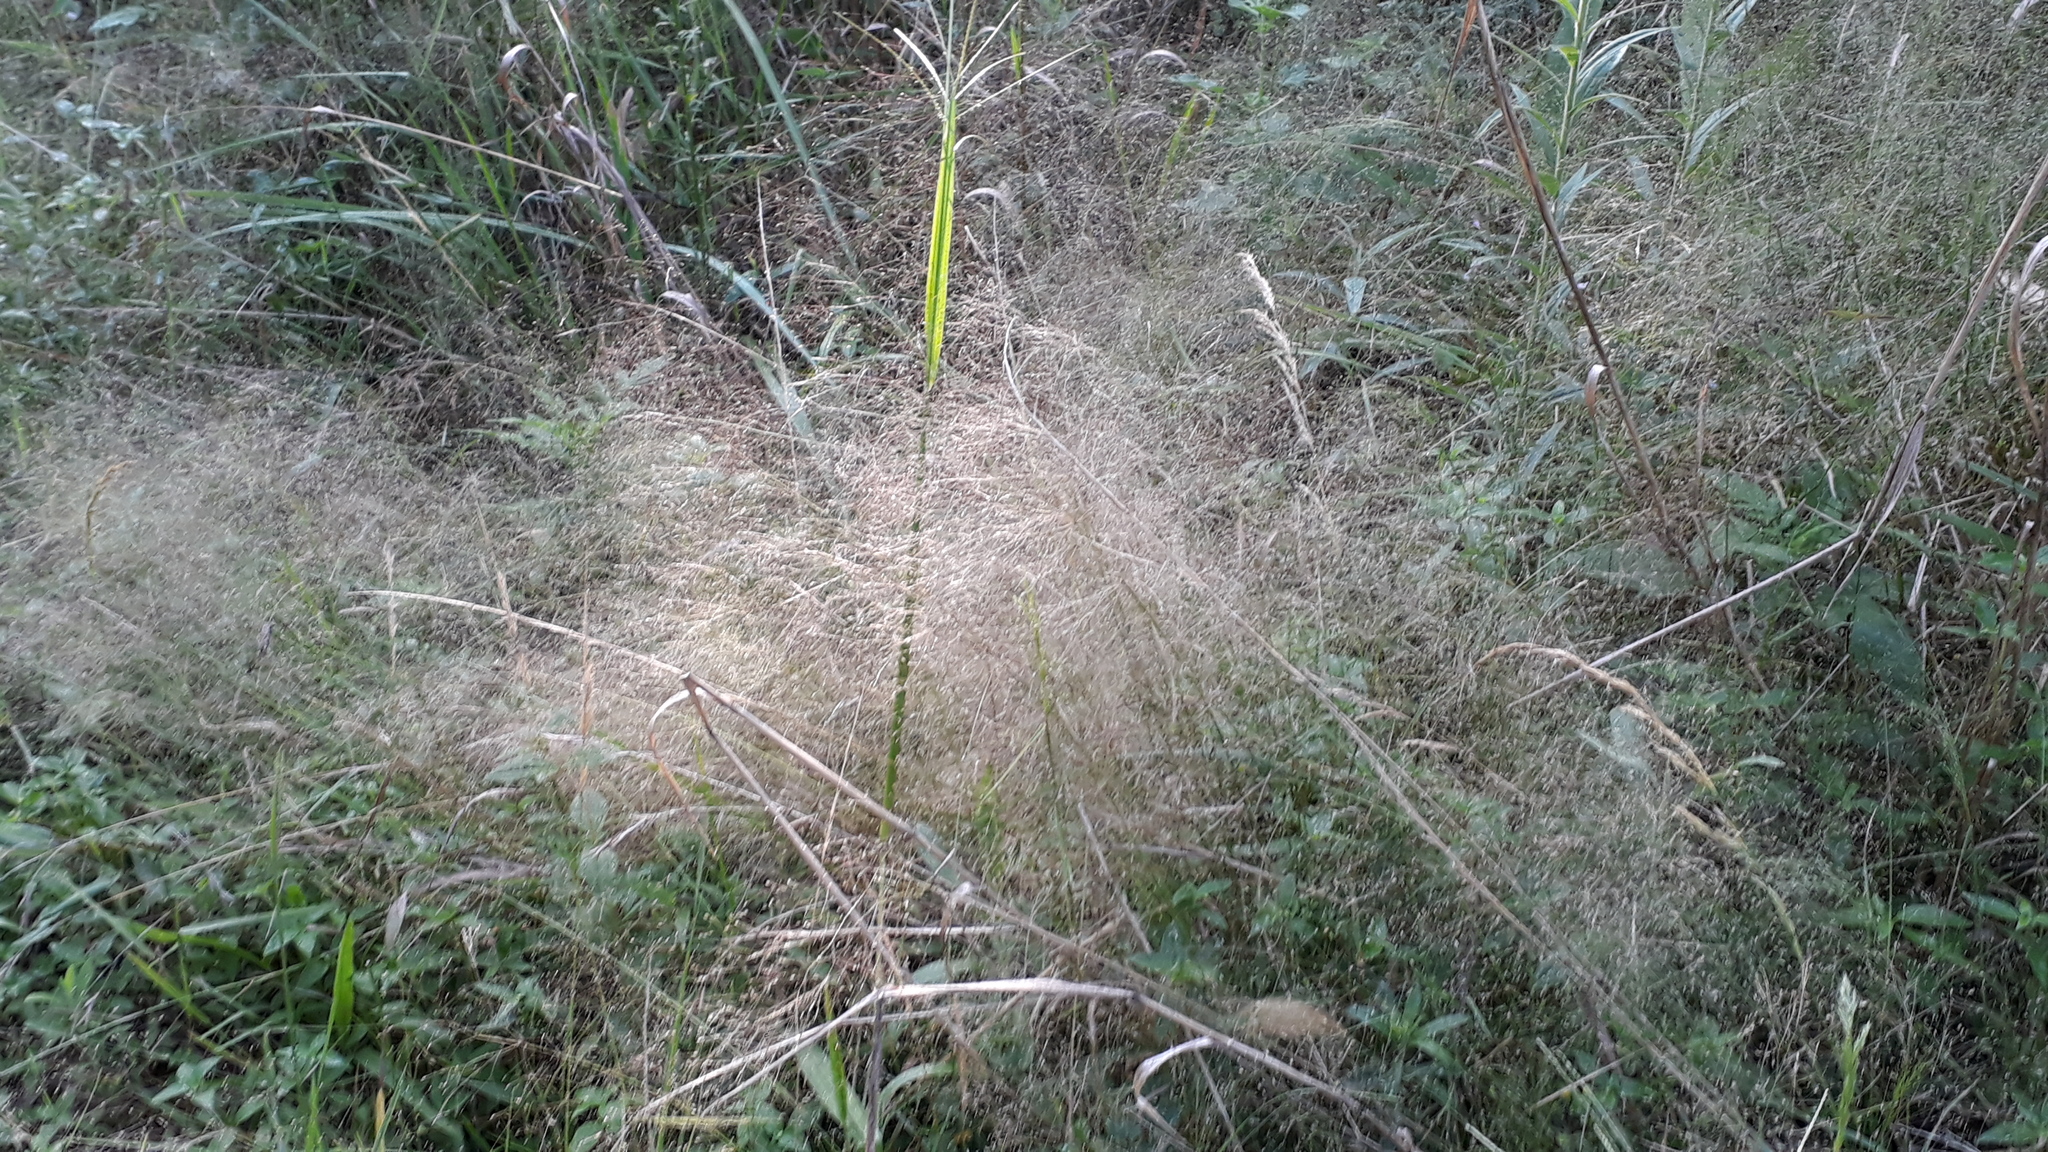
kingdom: Plantae
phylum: Tracheophyta
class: Liliopsida
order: Poales
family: Poaceae
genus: Eragrostis
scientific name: Eragrostis airoides
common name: Darnel lovegrass
